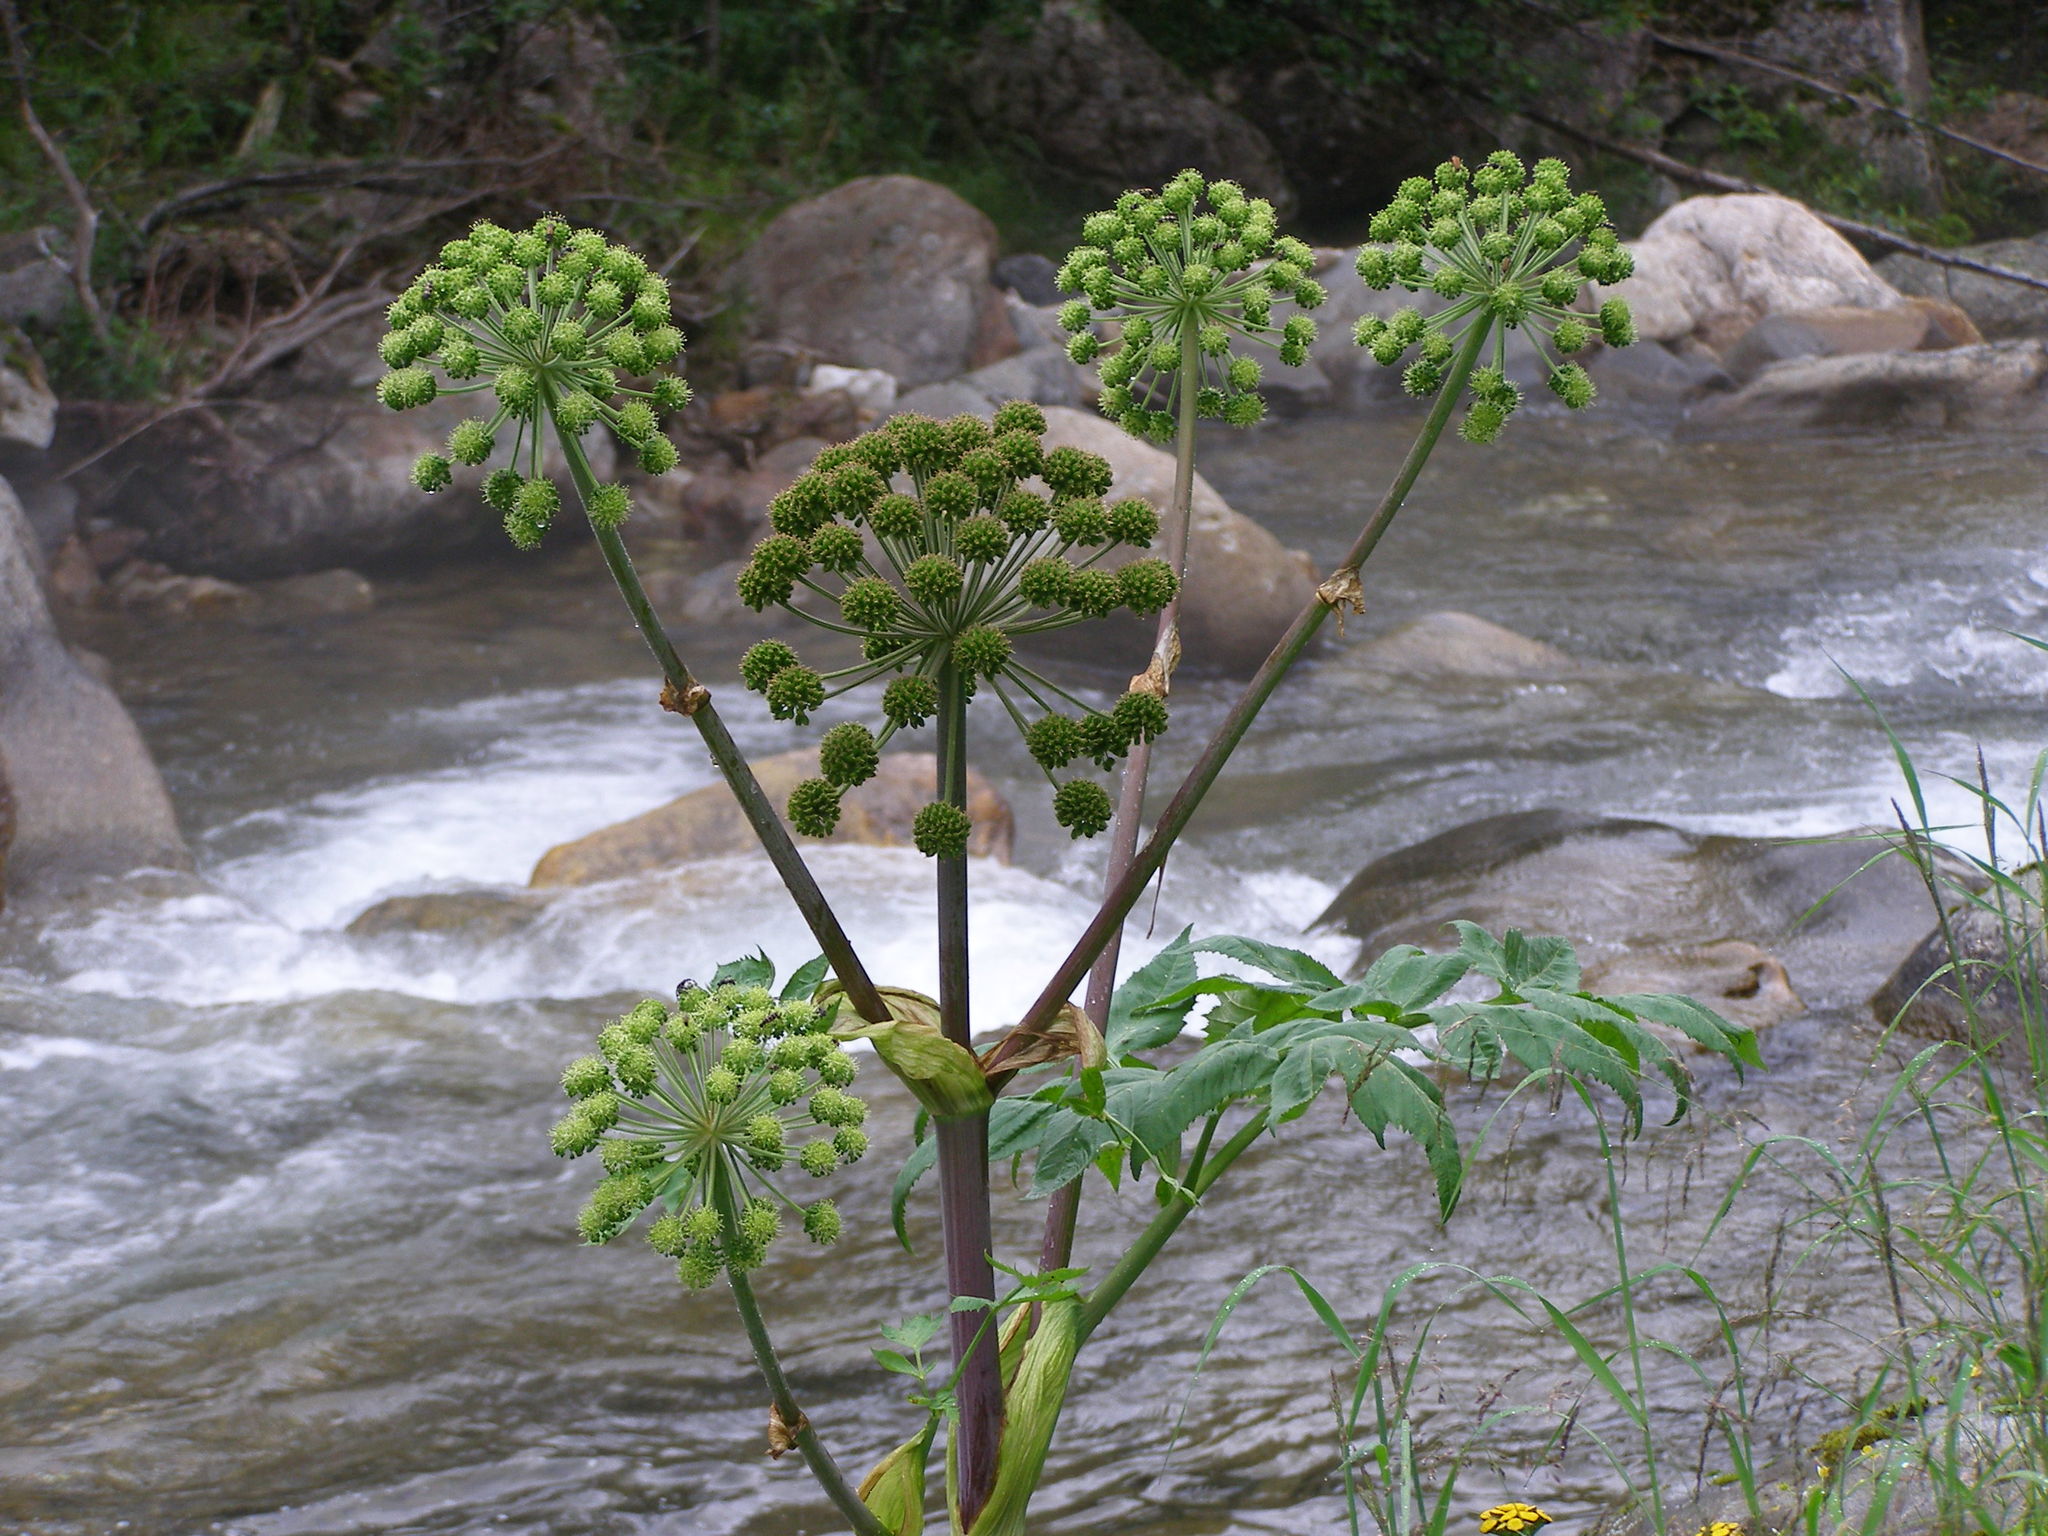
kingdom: Plantae
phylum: Tracheophyta
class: Magnoliopsida
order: Apiales
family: Apiaceae
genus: Angelica
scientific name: Angelica decurrens
